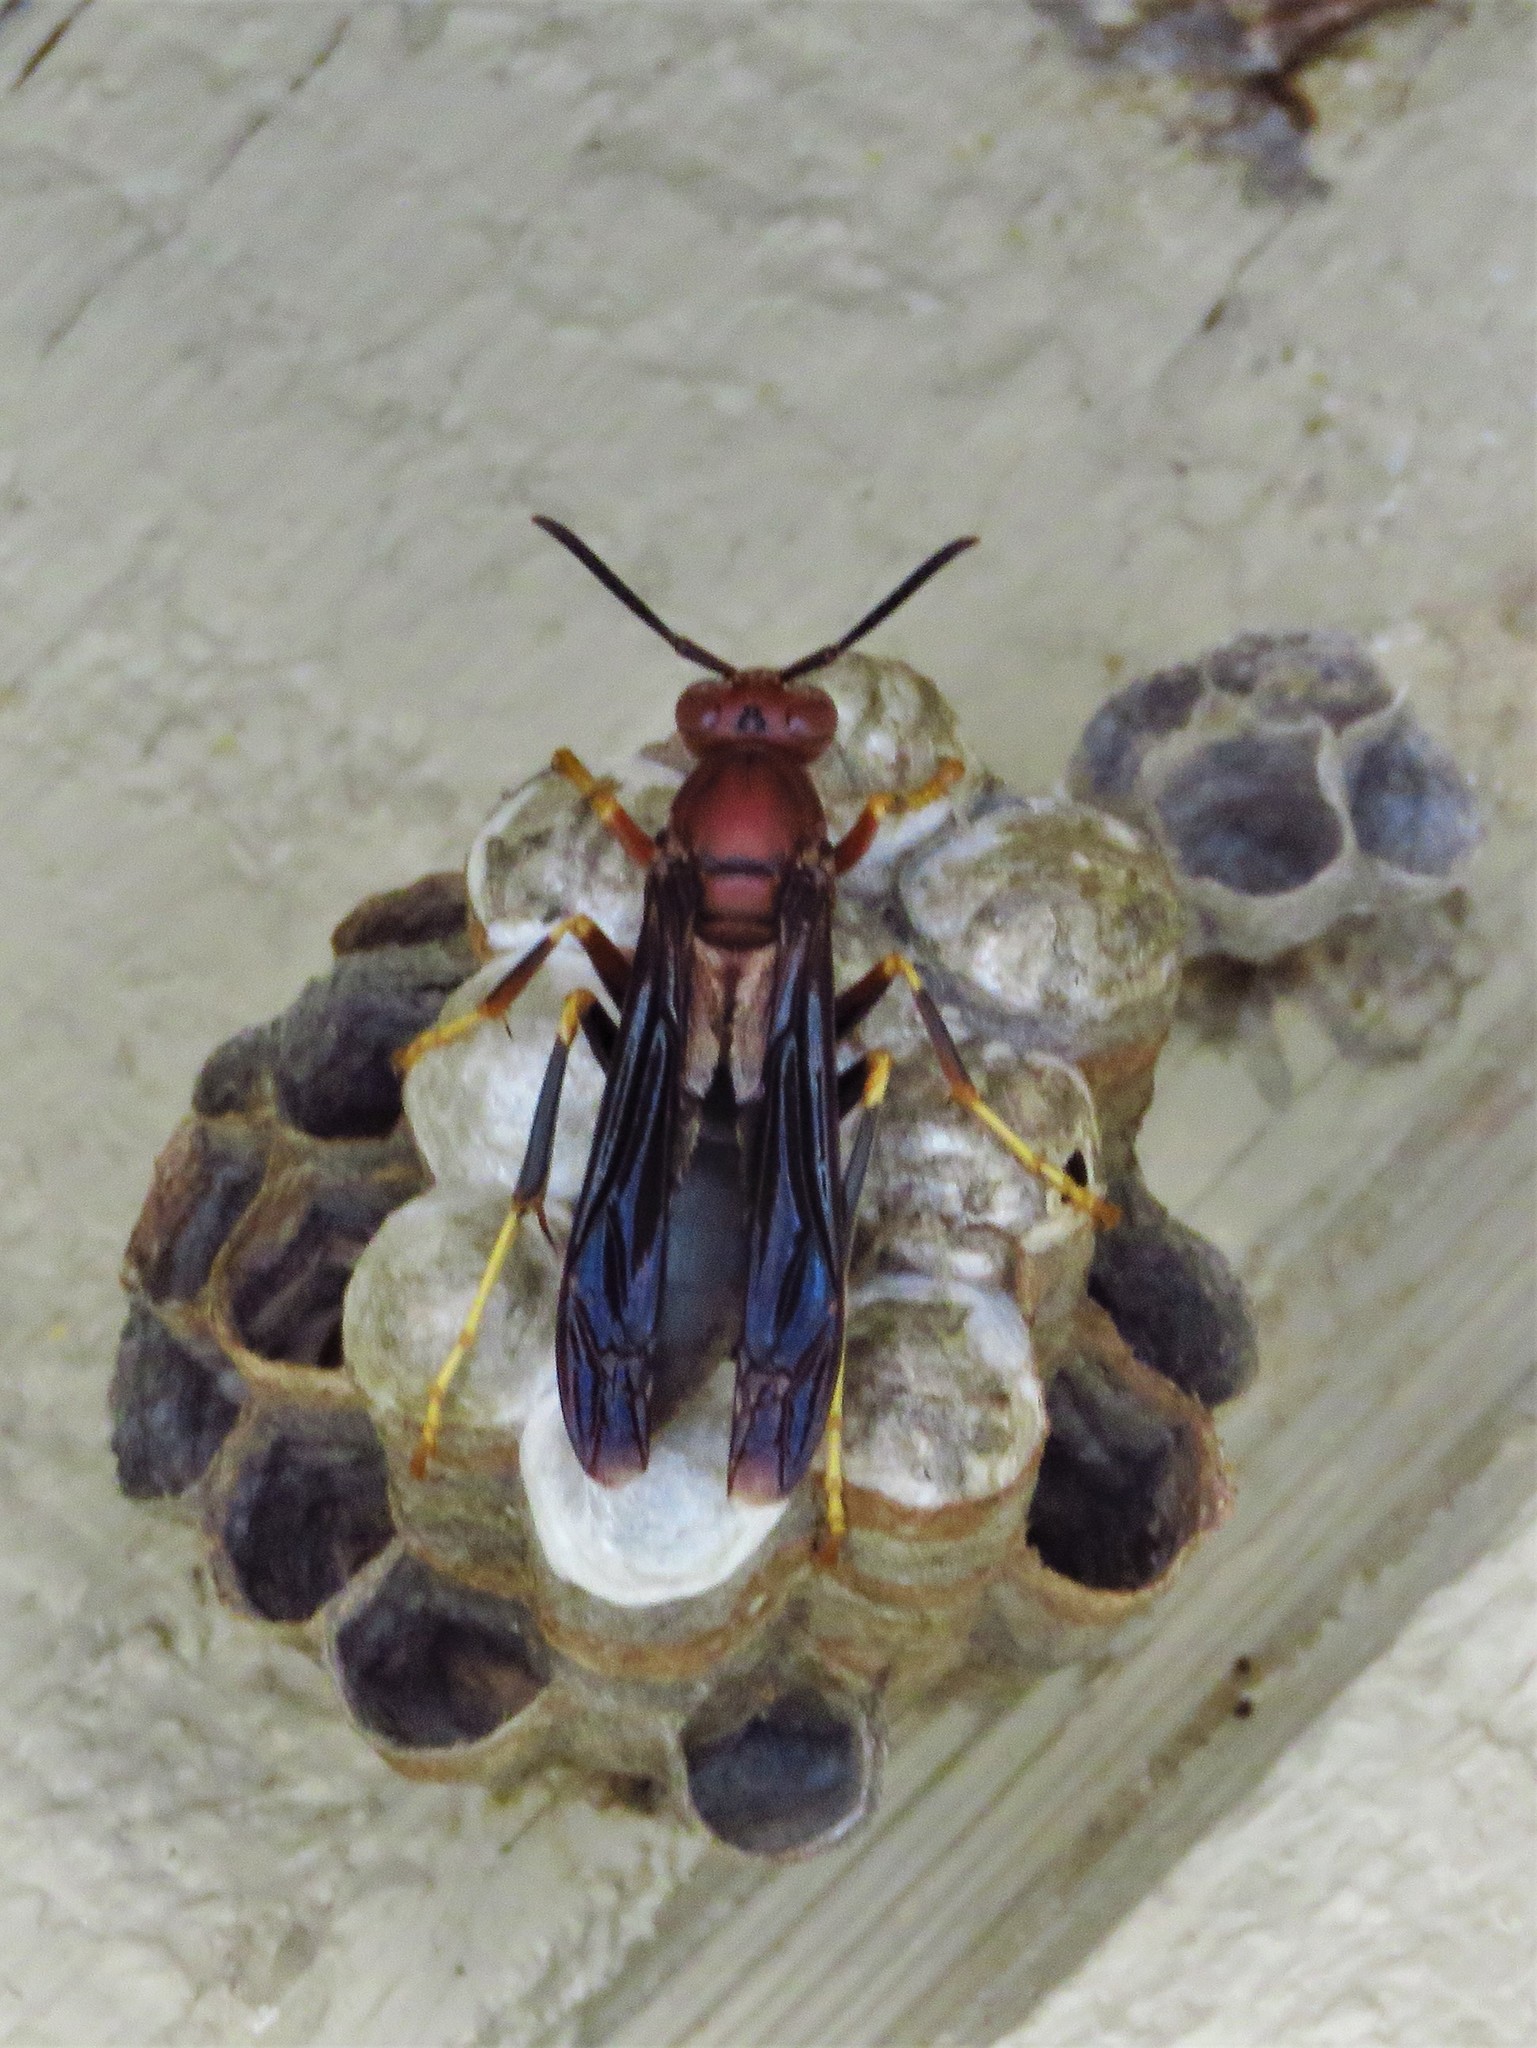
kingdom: Animalia
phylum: Arthropoda
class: Insecta
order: Hymenoptera
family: Eumenidae
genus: Polistes
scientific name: Polistes metricus
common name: Metric paper wasp
